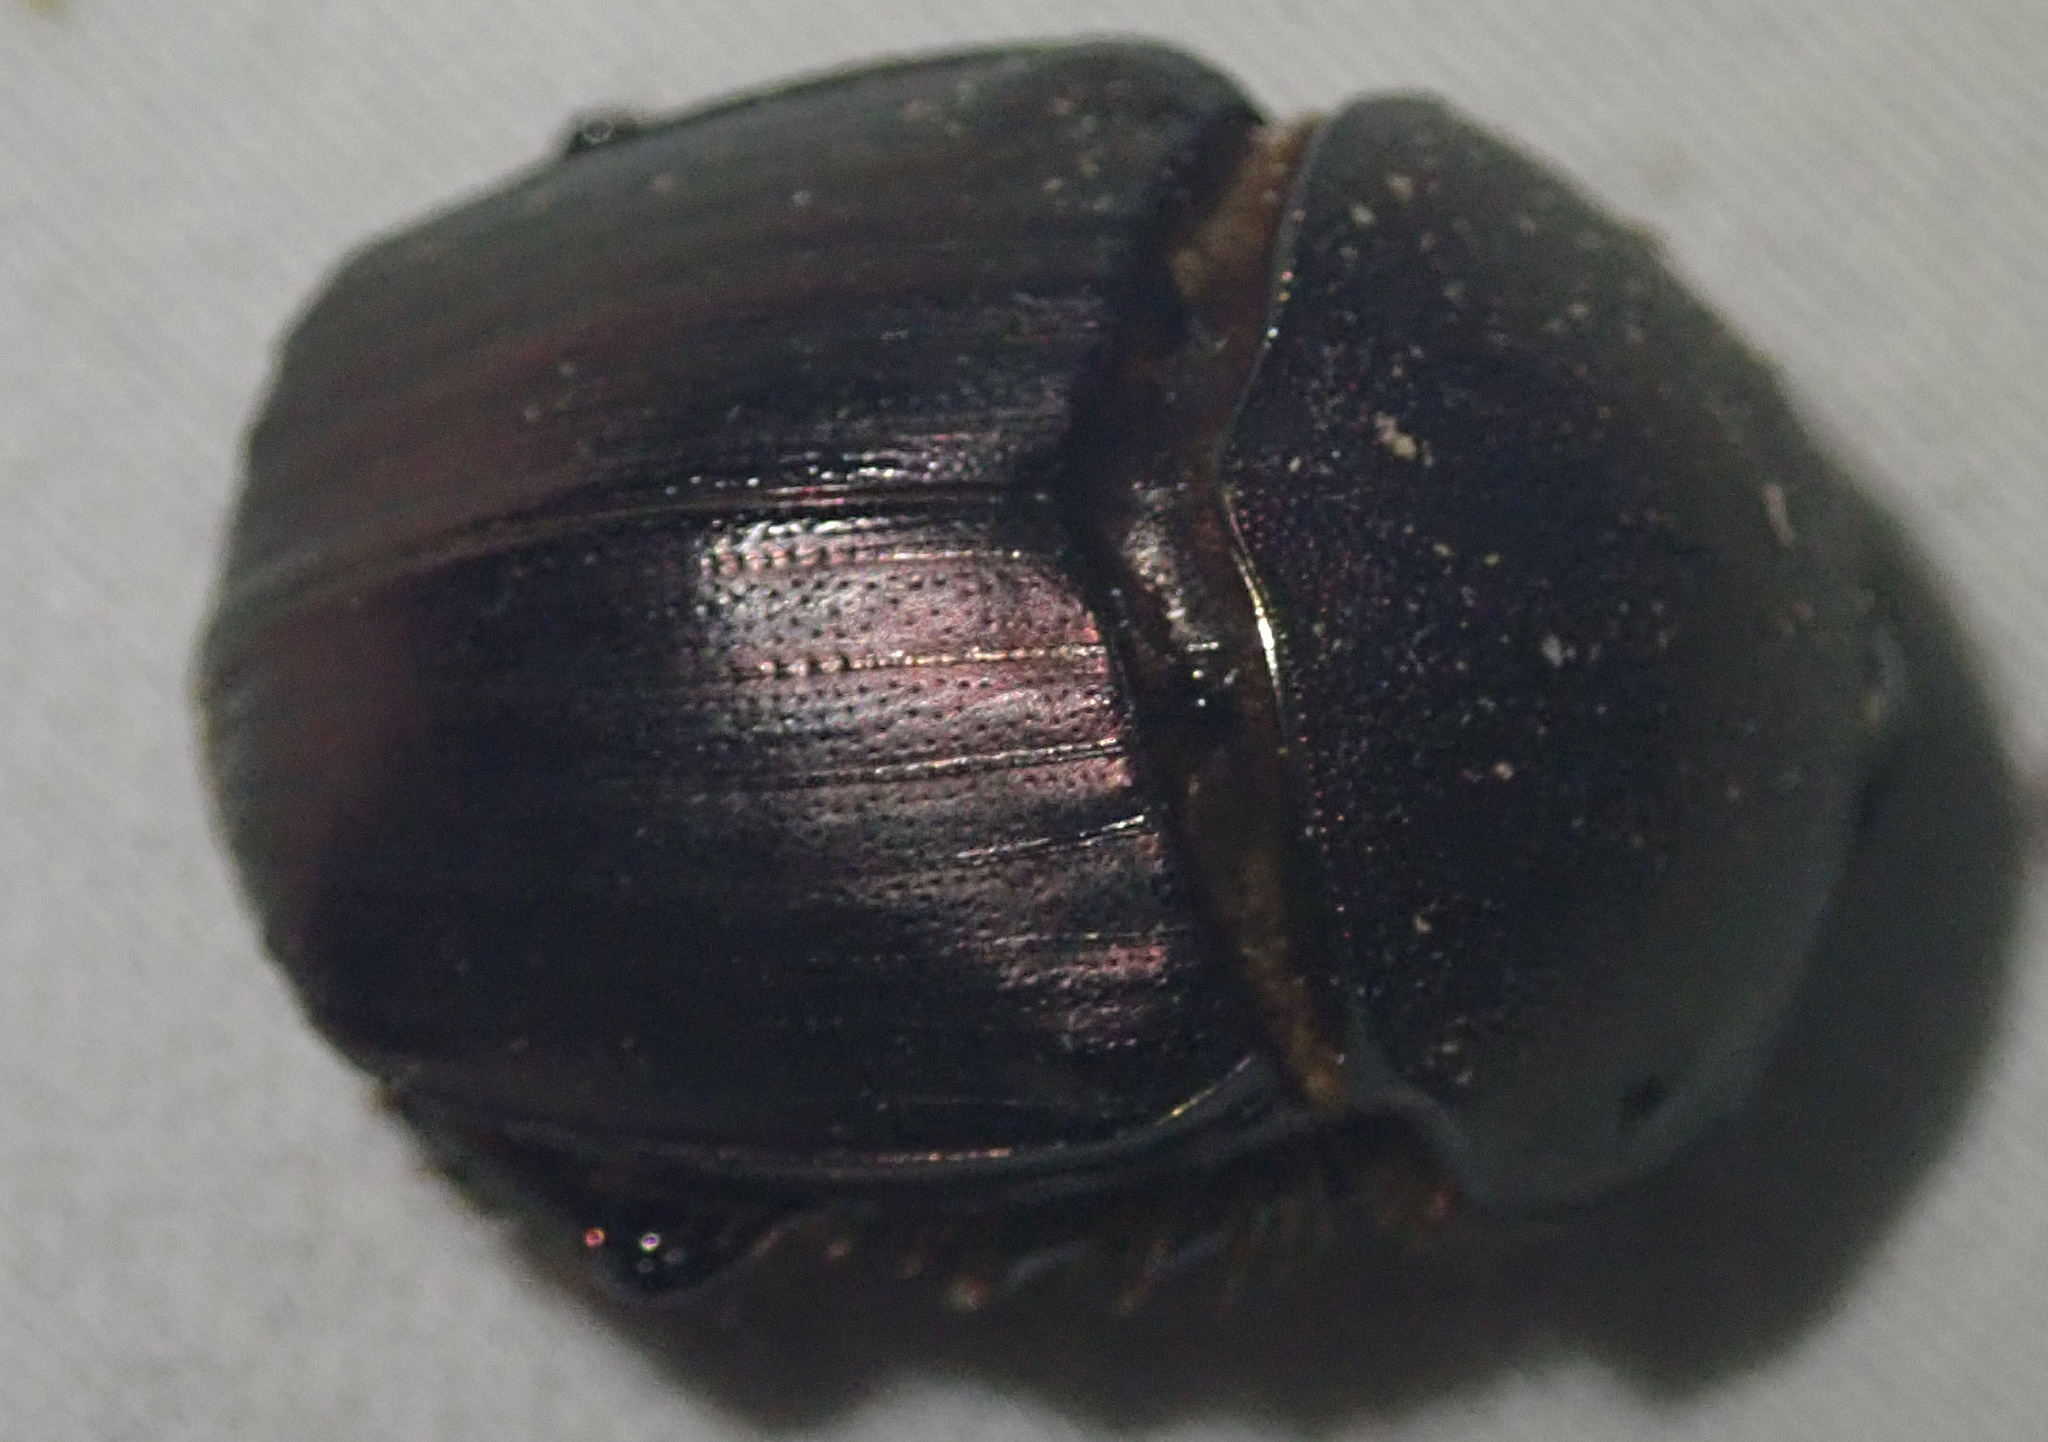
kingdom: Animalia
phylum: Arthropoda
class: Insecta
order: Coleoptera
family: Scarabaeidae
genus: Onitis
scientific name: Onitis westermanni
